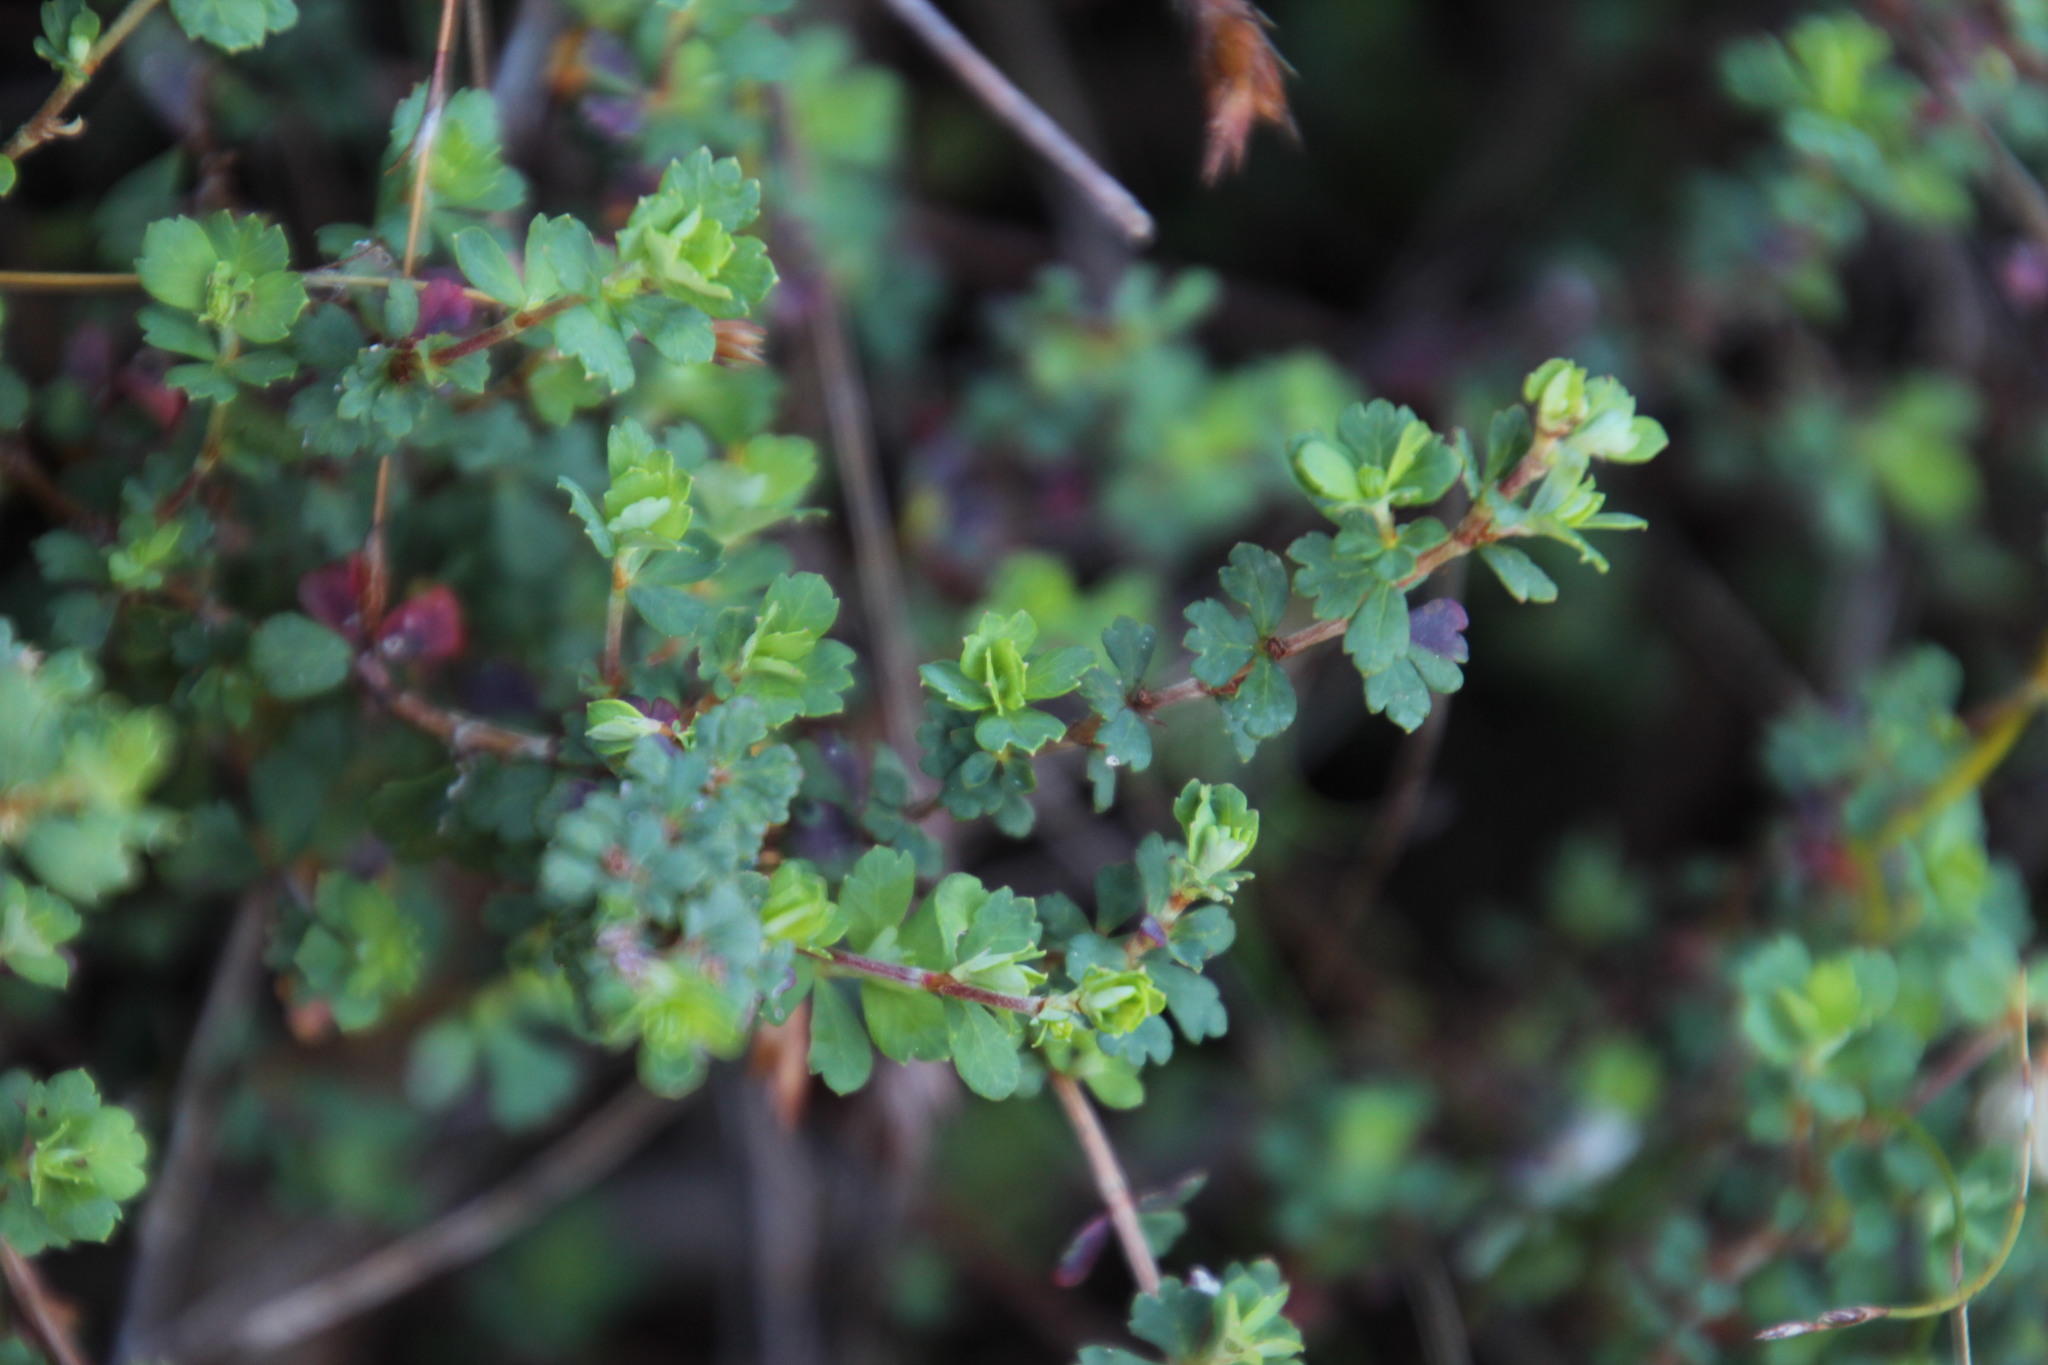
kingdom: Plantae
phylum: Tracheophyta
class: Magnoliopsida
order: Rosales
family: Rosaceae
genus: Cliffortia
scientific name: Cliffortia dentata
